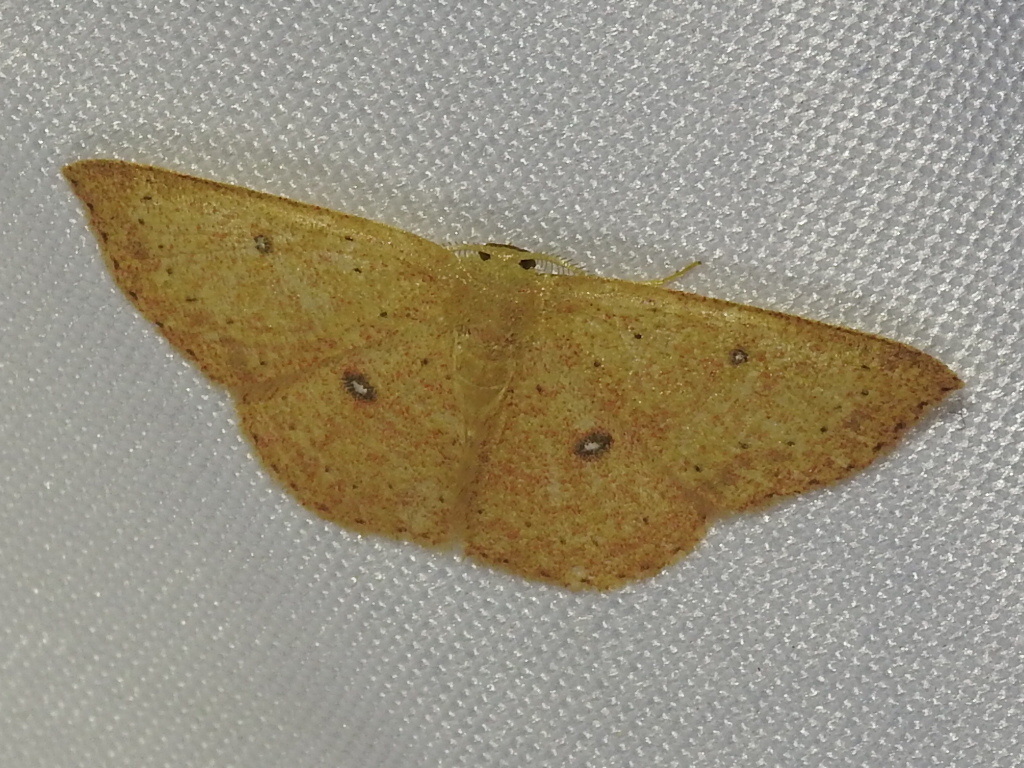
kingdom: Animalia
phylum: Arthropoda
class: Insecta
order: Lepidoptera
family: Geometridae
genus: Cyclophora
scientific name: Cyclophora packardi
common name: Packard's wave
